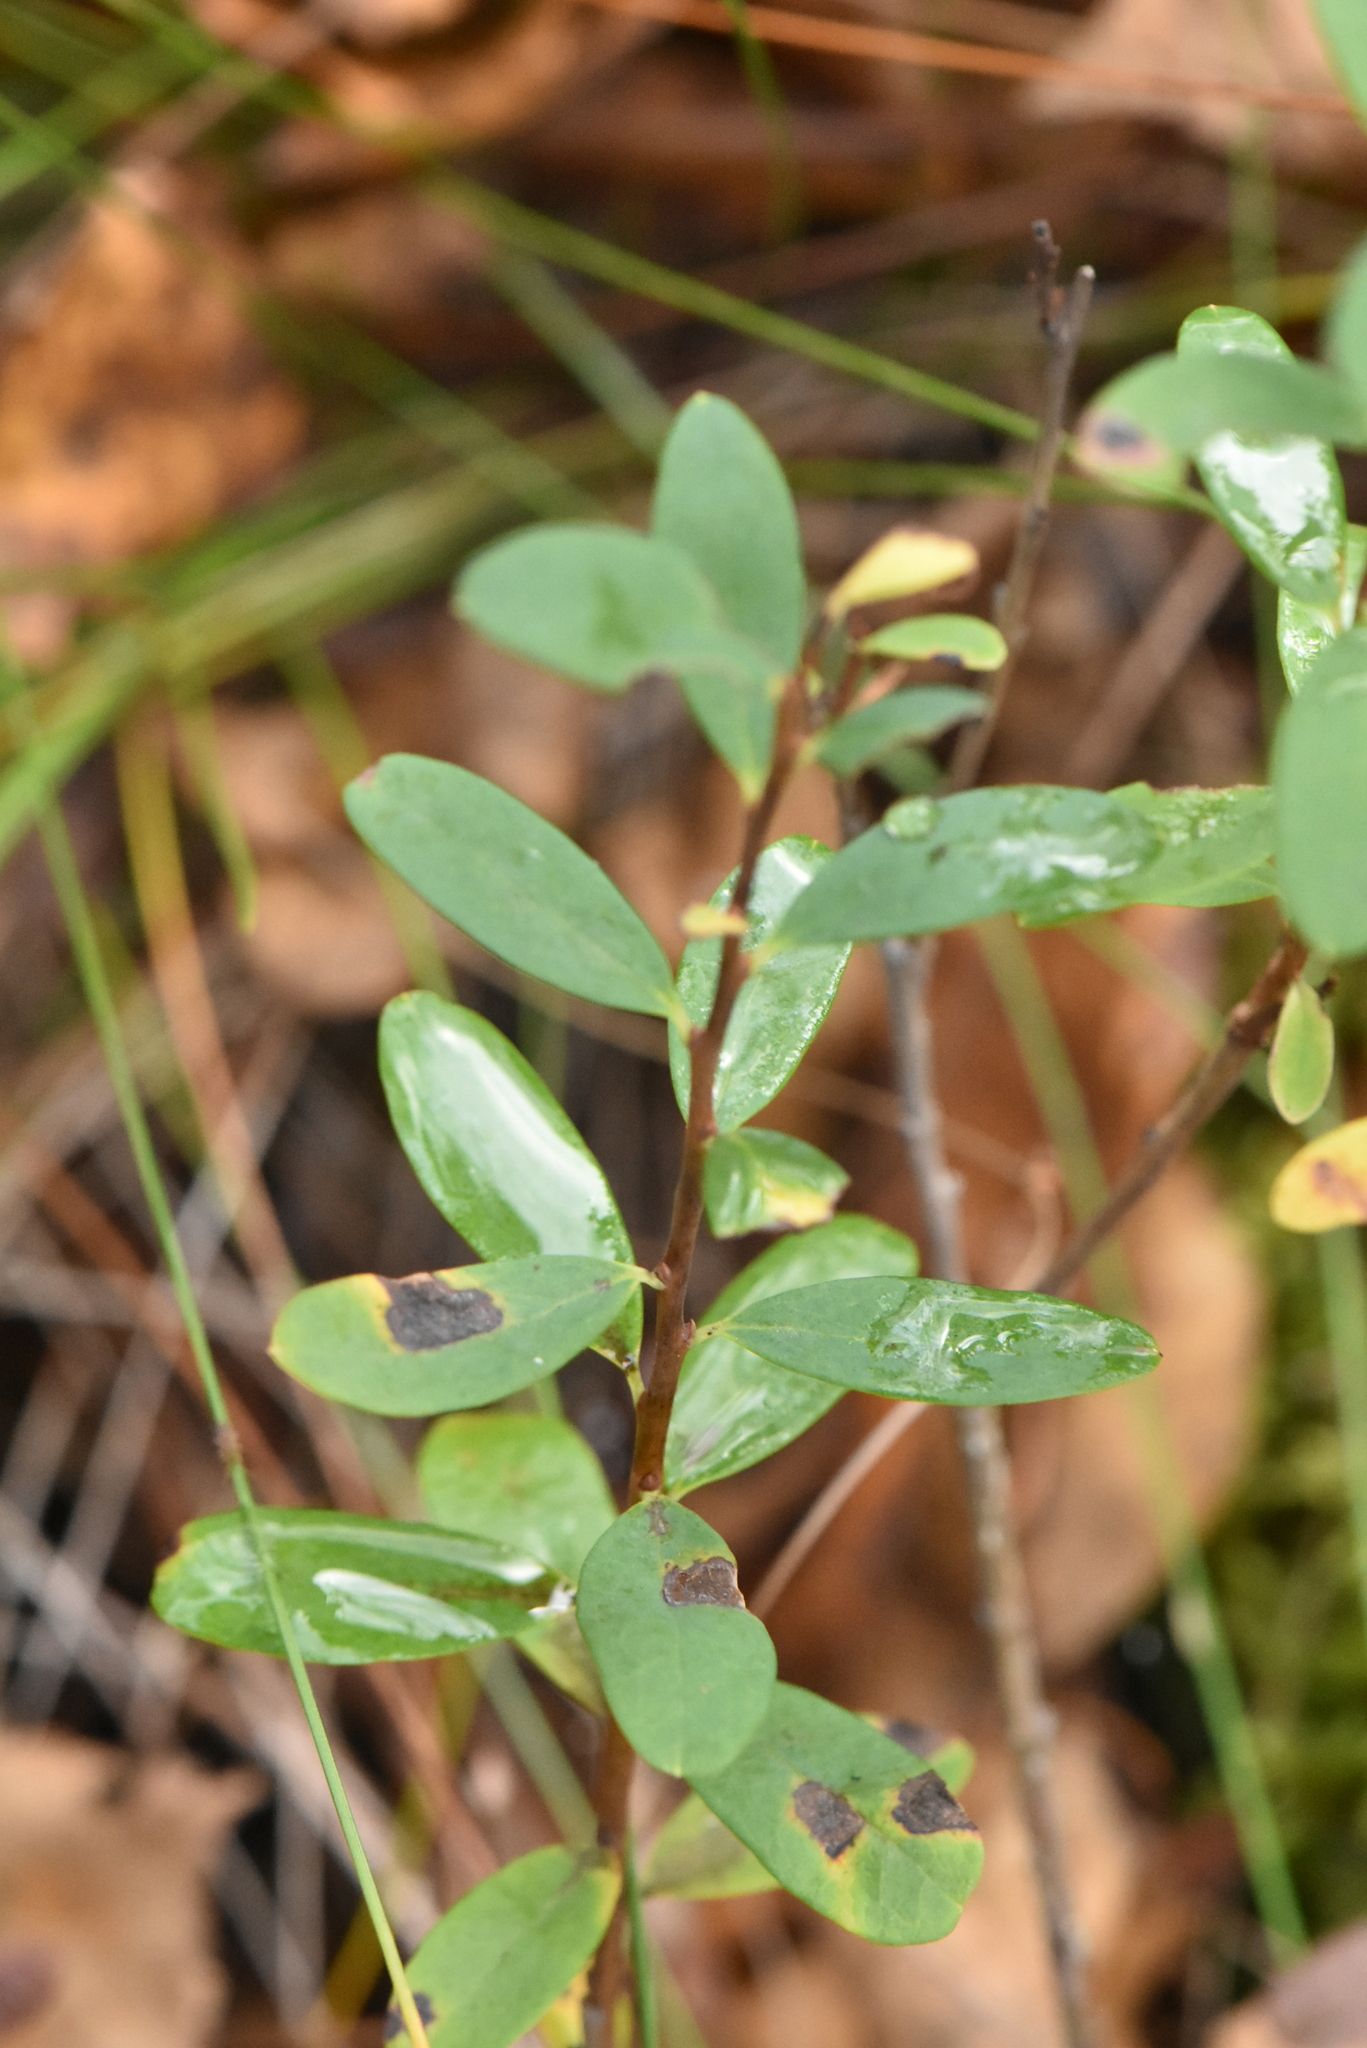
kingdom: Plantae
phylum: Tracheophyta
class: Magnoliopsida
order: Ericales
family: Ericaceae
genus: Vaccinium
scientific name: Vaccinium uliginosum
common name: Bog bilberry
